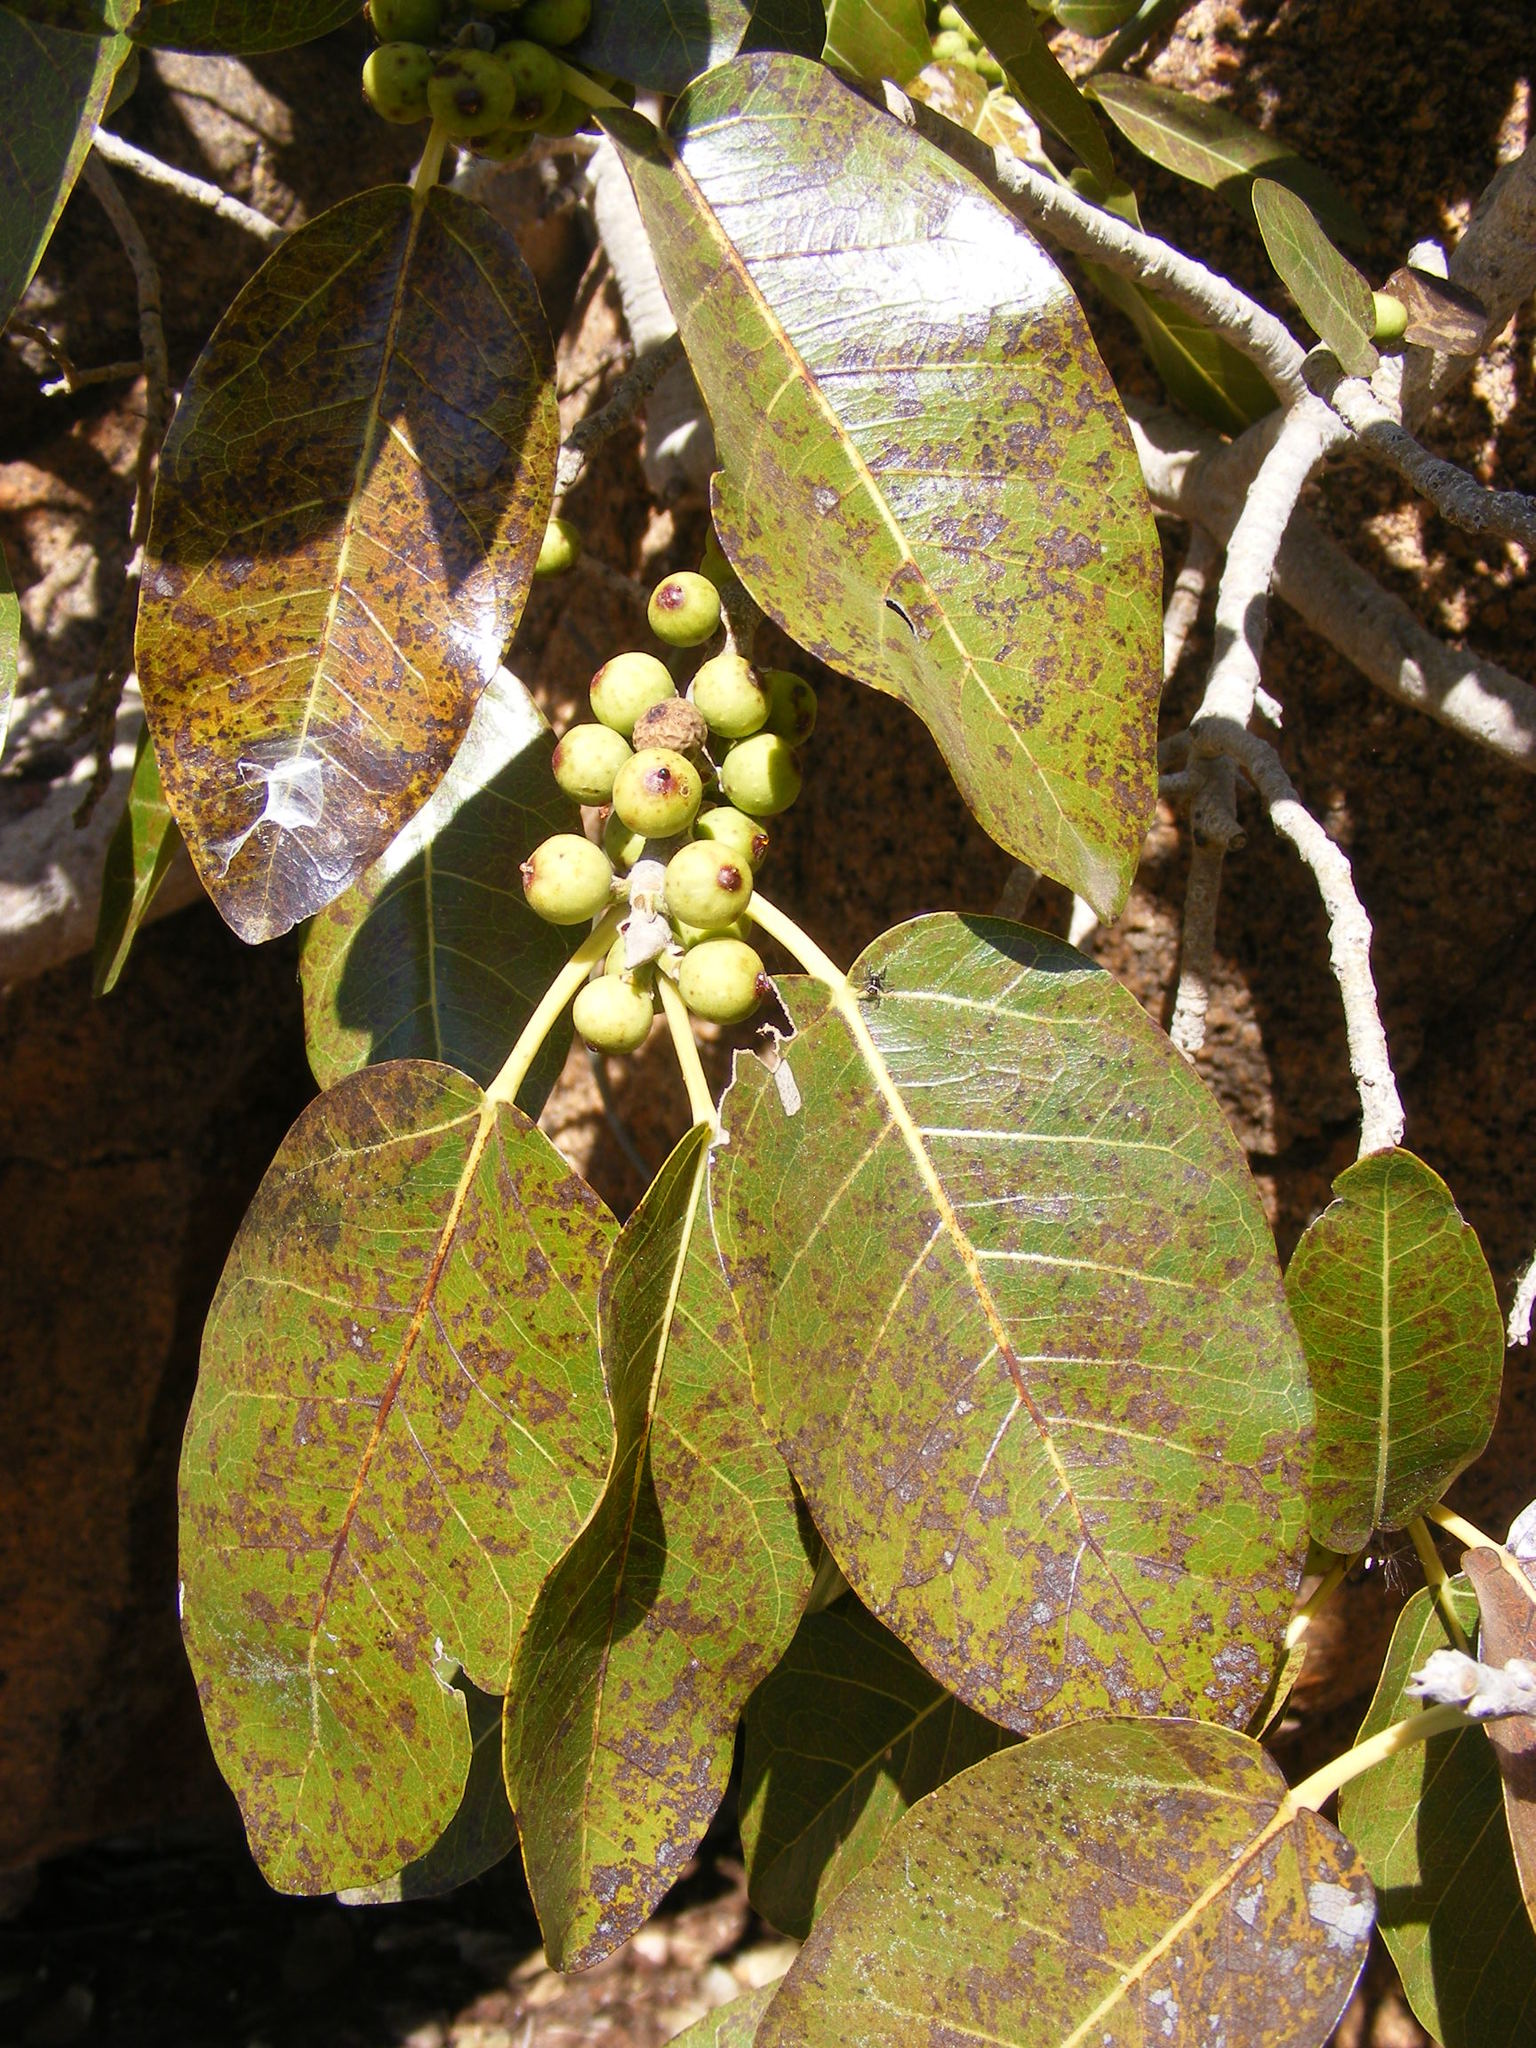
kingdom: Plantae
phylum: Tracheophyta
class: Magnoliopsida
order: Rosales
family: Moraceae
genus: Ficus
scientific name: Ficus ingens
